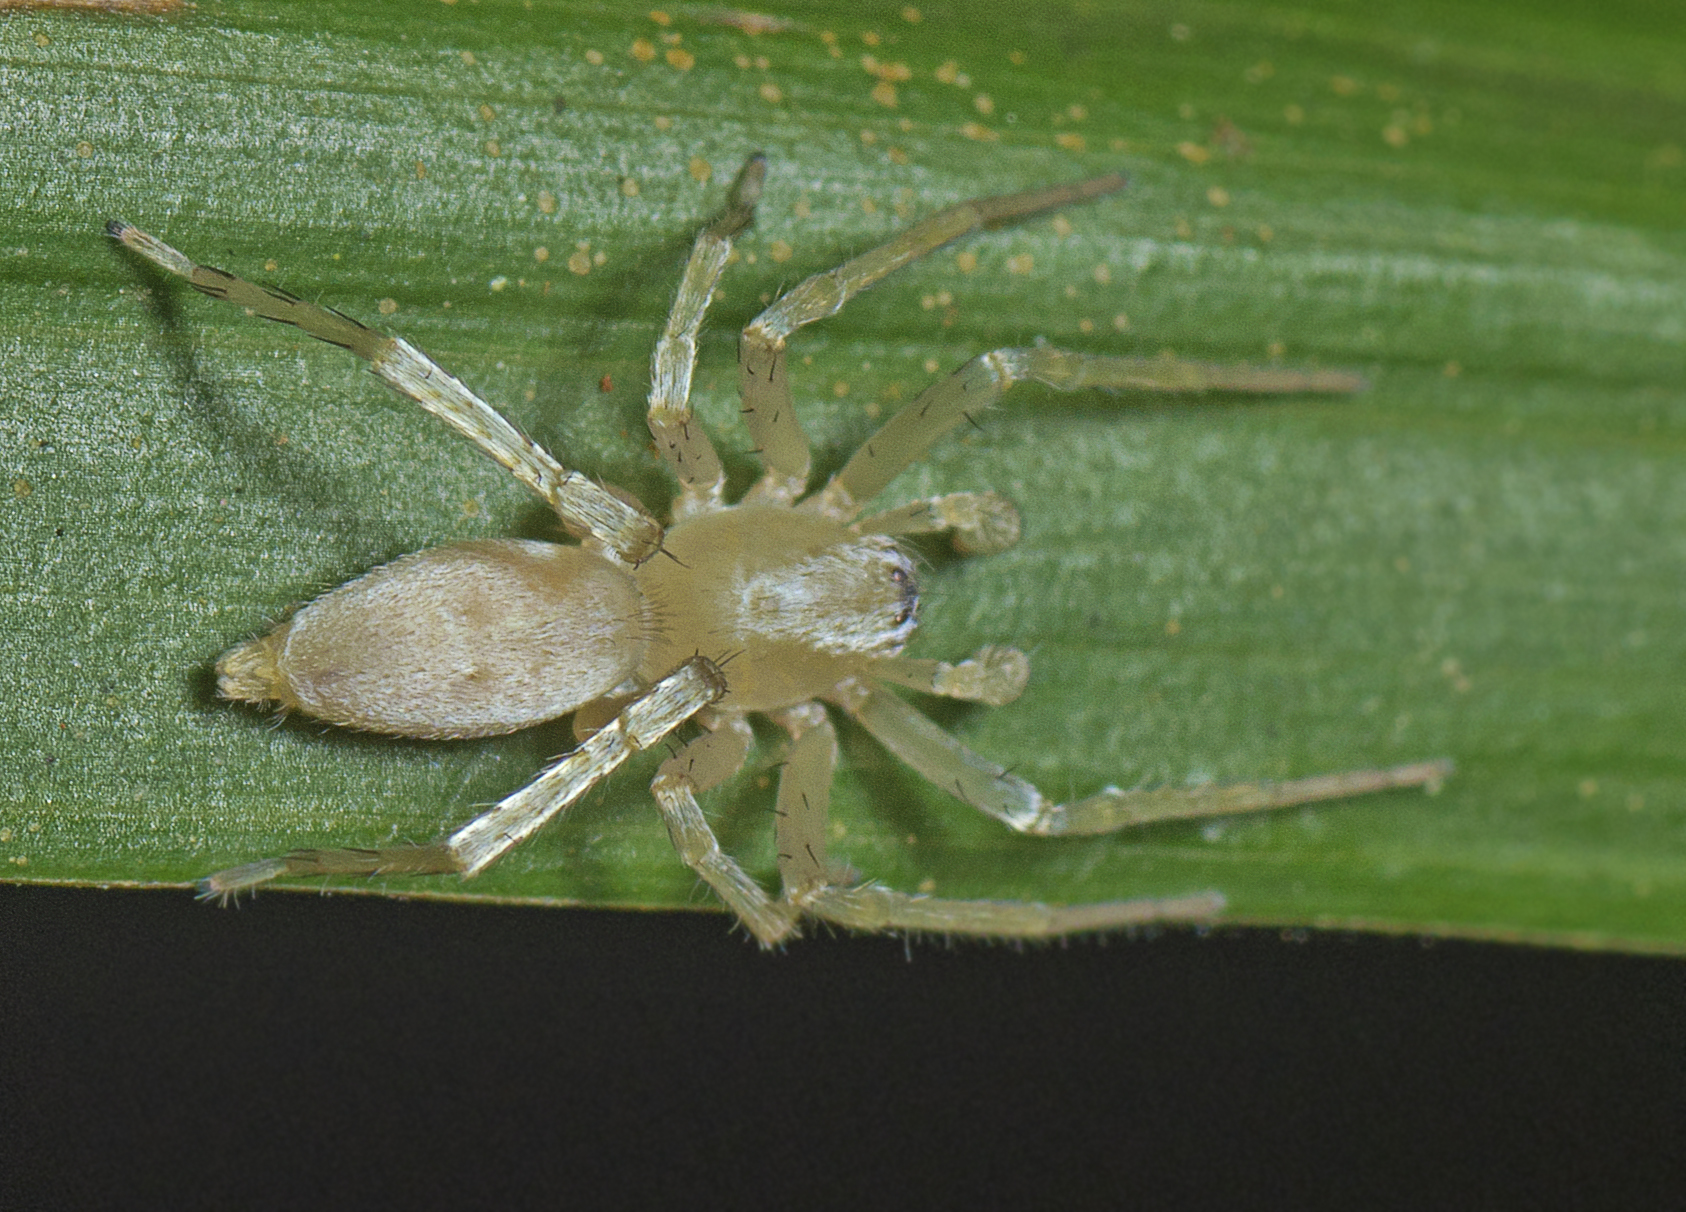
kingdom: Animalia
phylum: Arthropoda
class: Arachnida
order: Araneae
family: Clubionidae
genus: Clubiona
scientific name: Clubiona modesta
